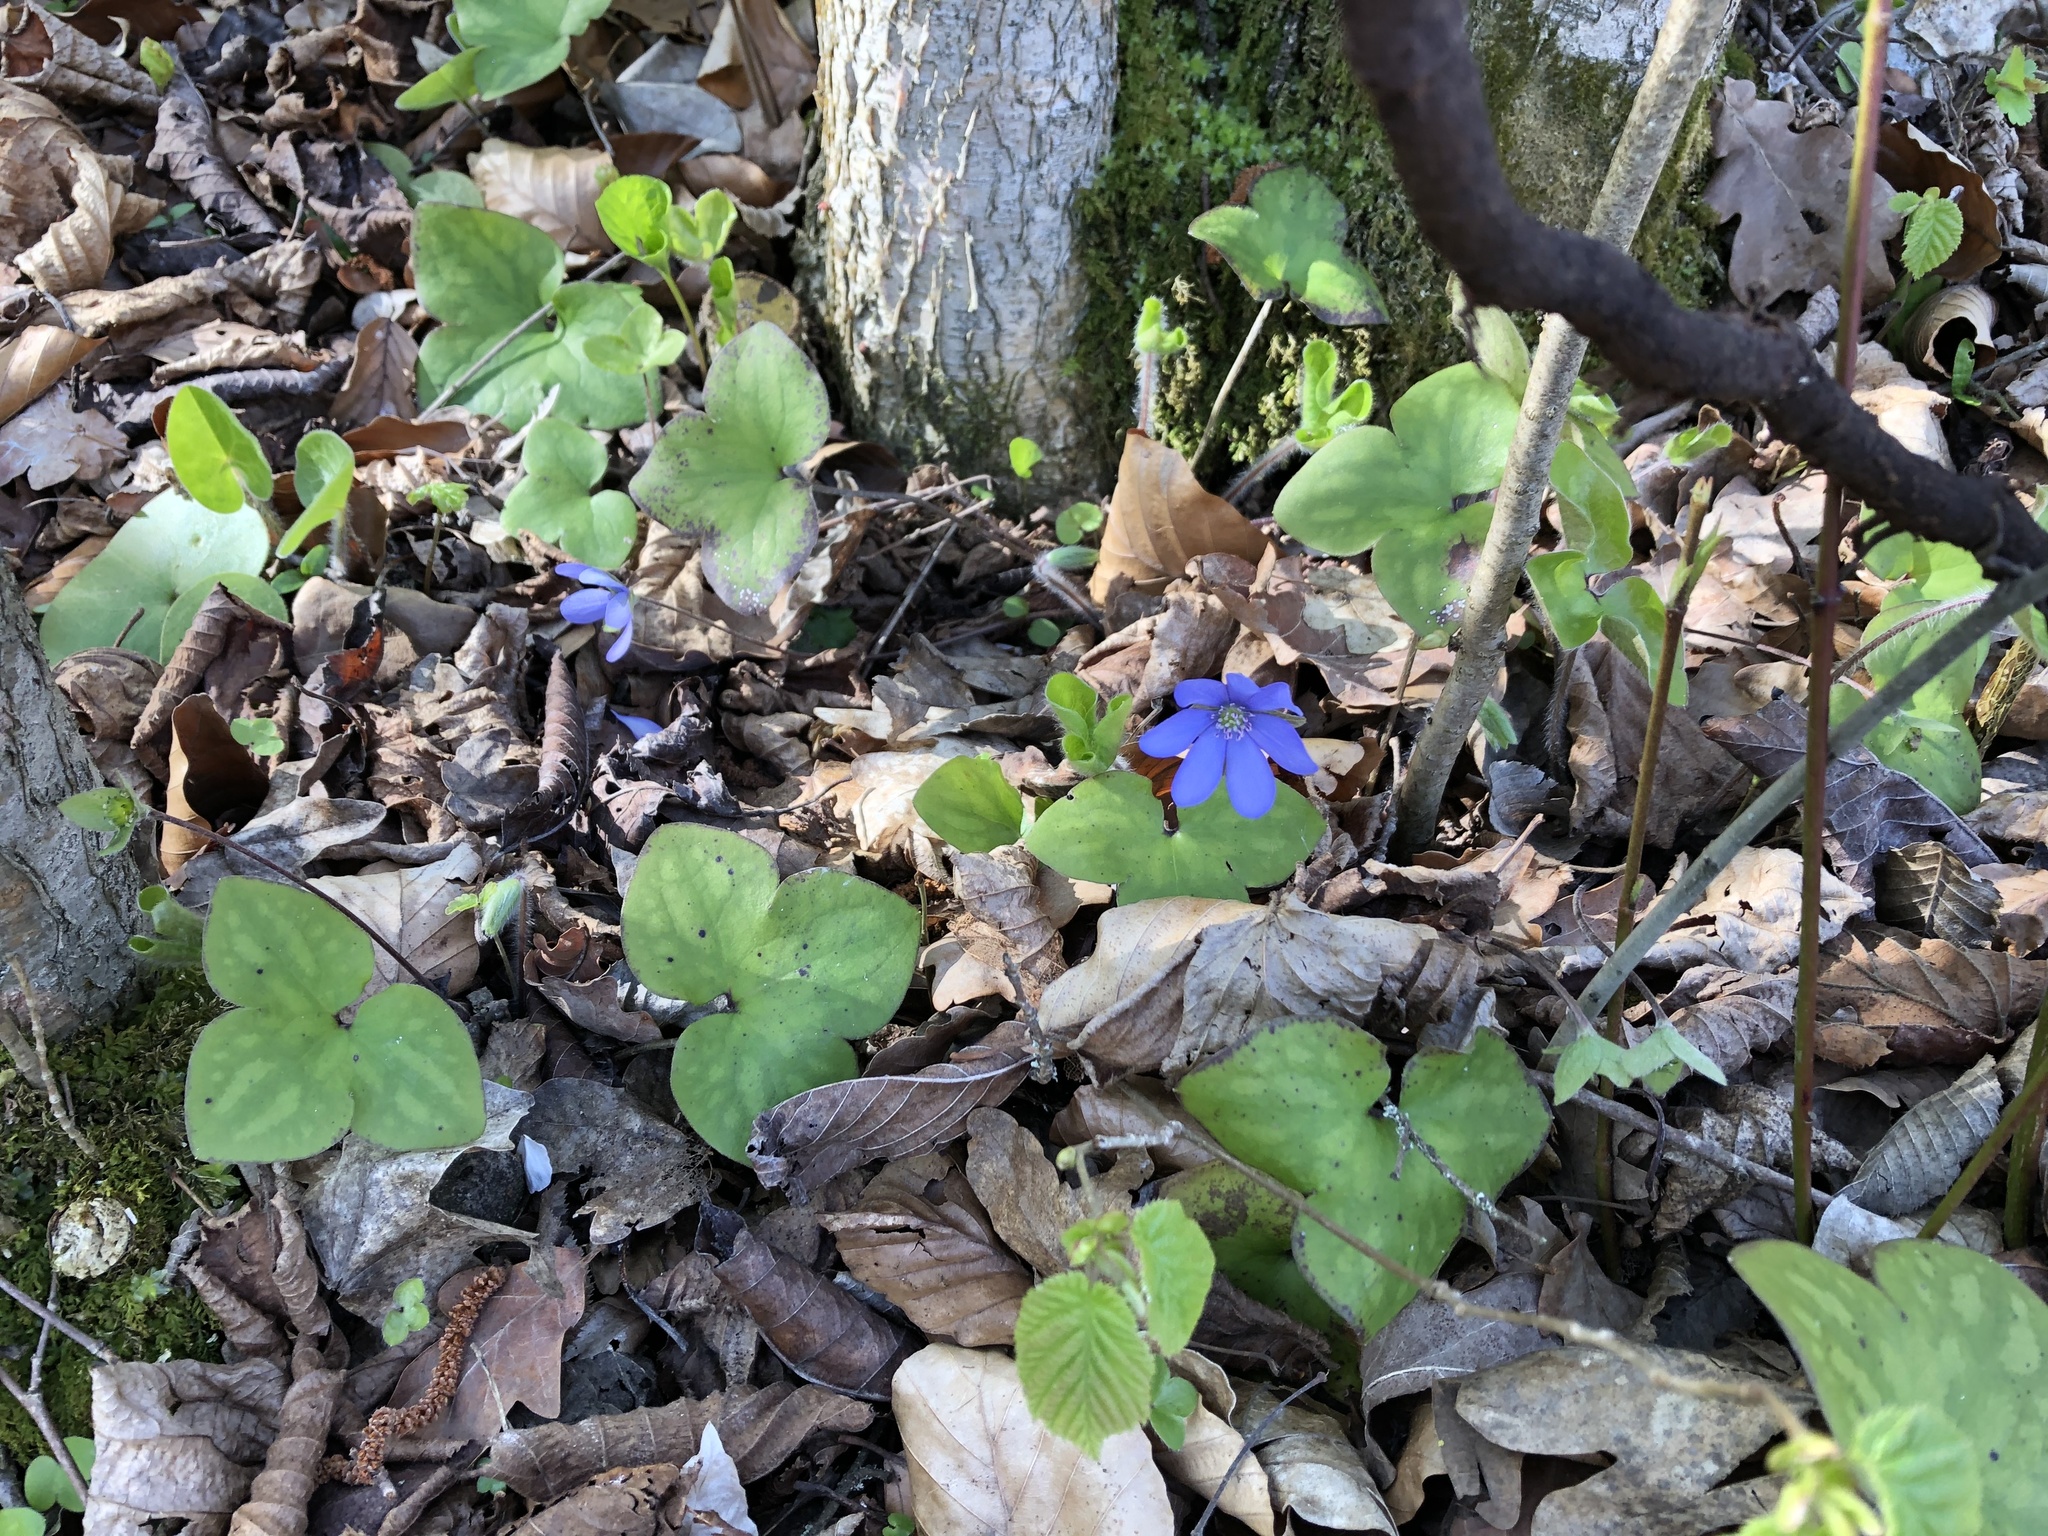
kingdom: Plantae
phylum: Tracheophyta
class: Magnoliopsida
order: Ranunculales
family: Ranunculaceae
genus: Hepatica
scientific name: Hepatica nobilis
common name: Liverleaf
